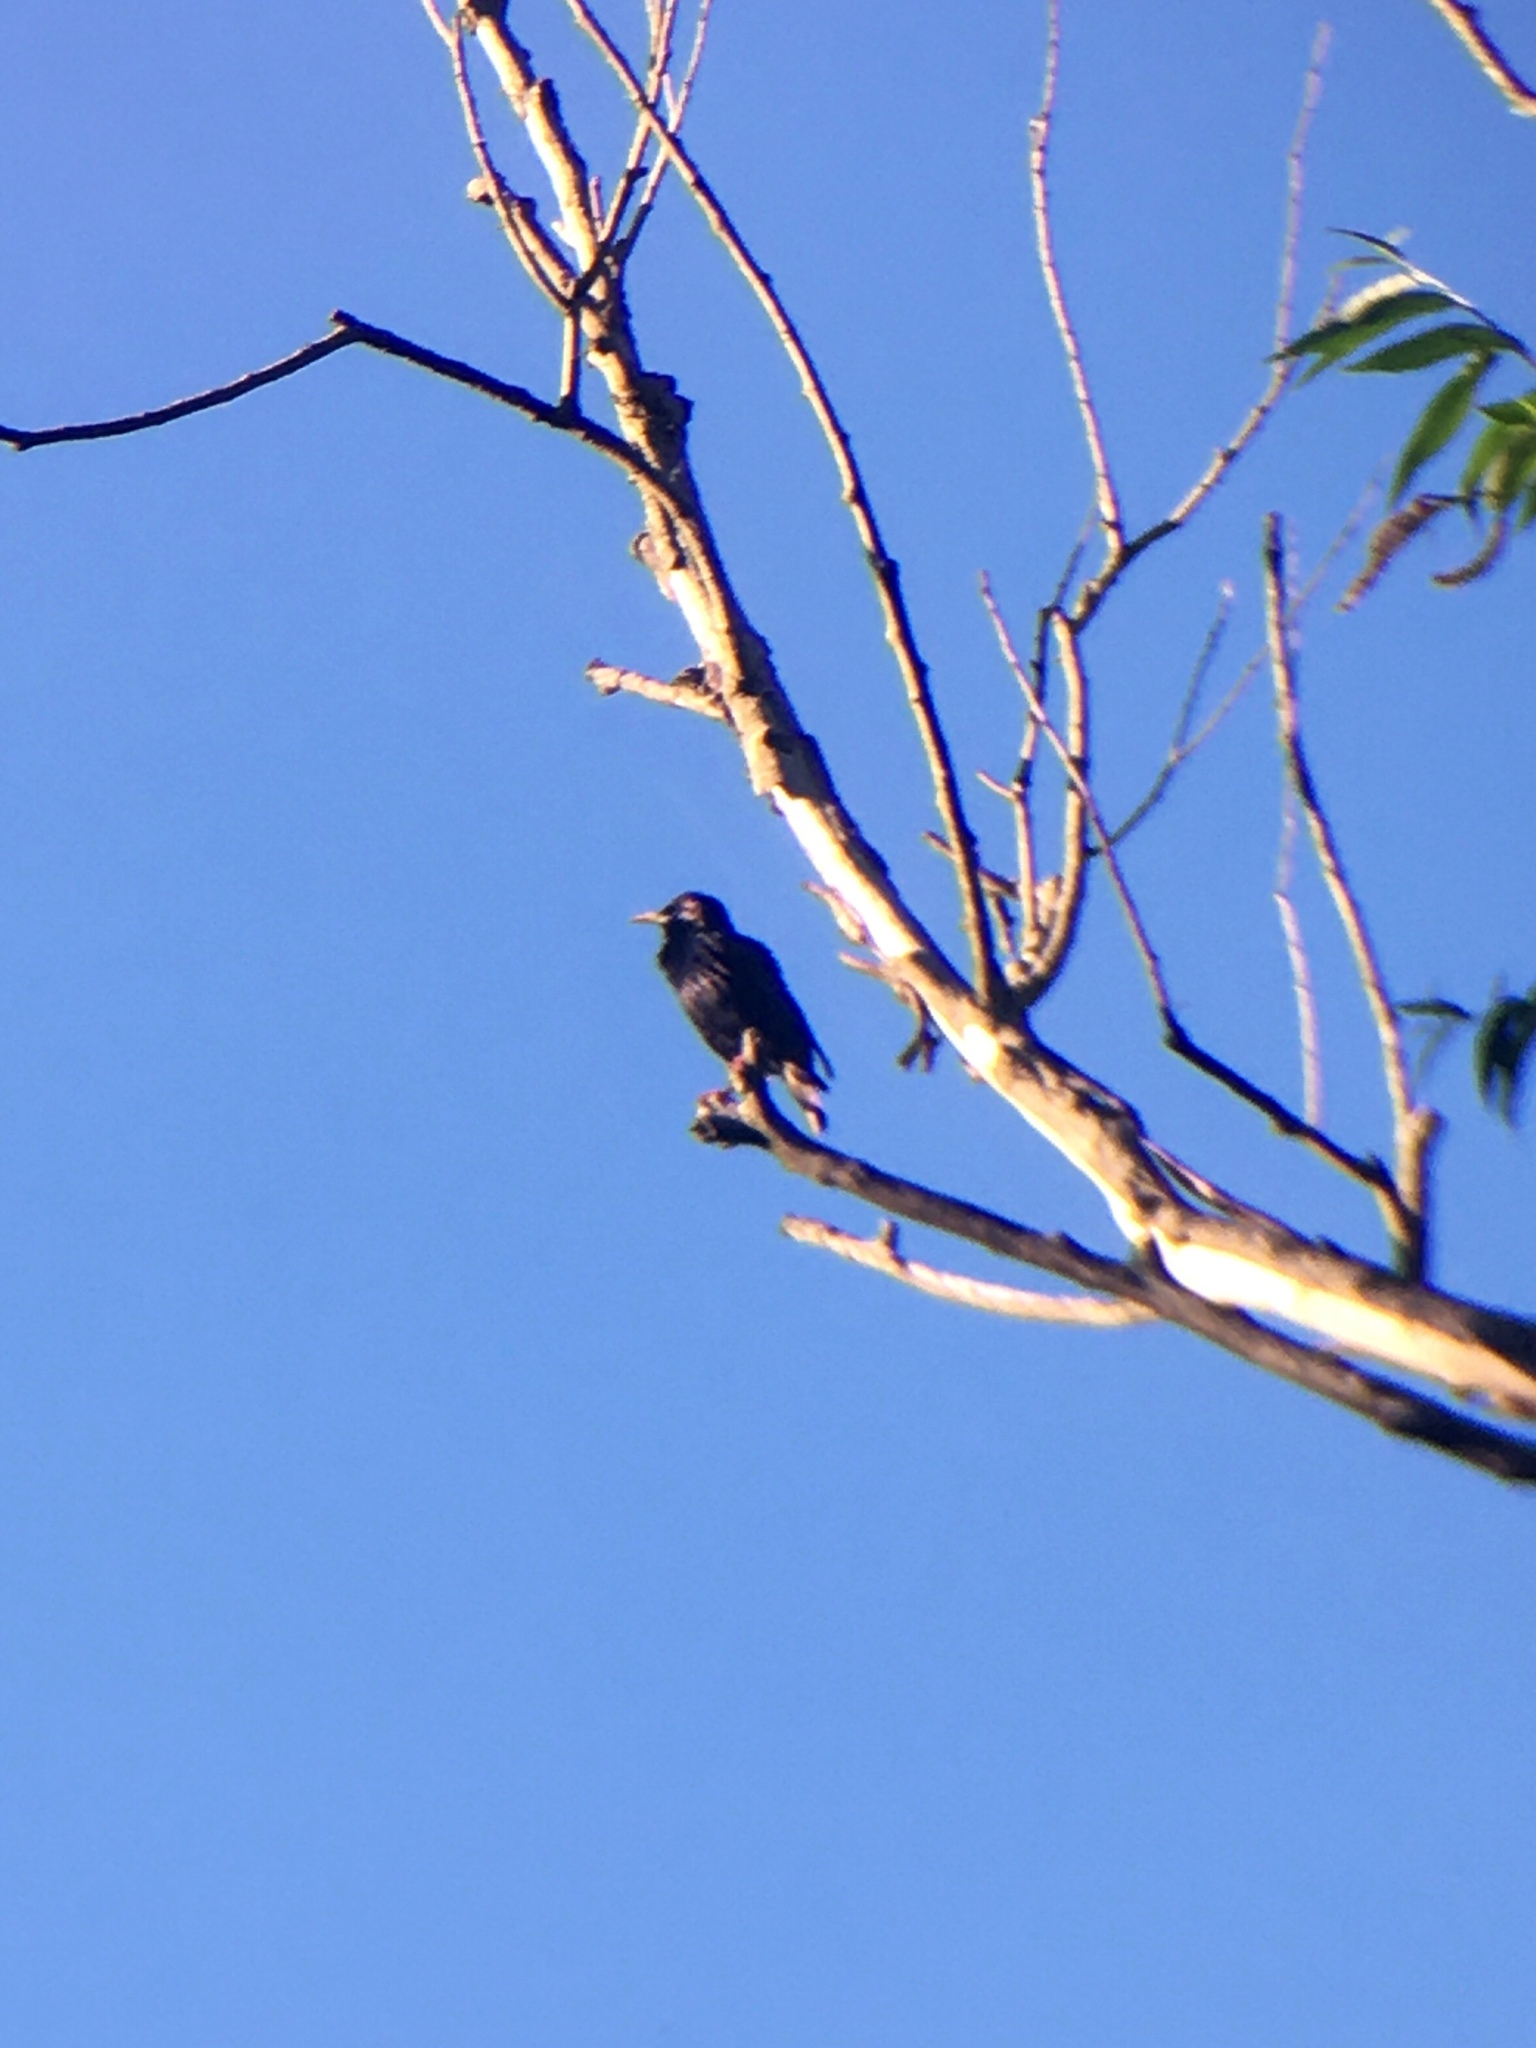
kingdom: Animalia
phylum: Chordata
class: Aves
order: Passeriformes
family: Sturnidae
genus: Sturnus
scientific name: Sturnus vulgaris
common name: Common starling
